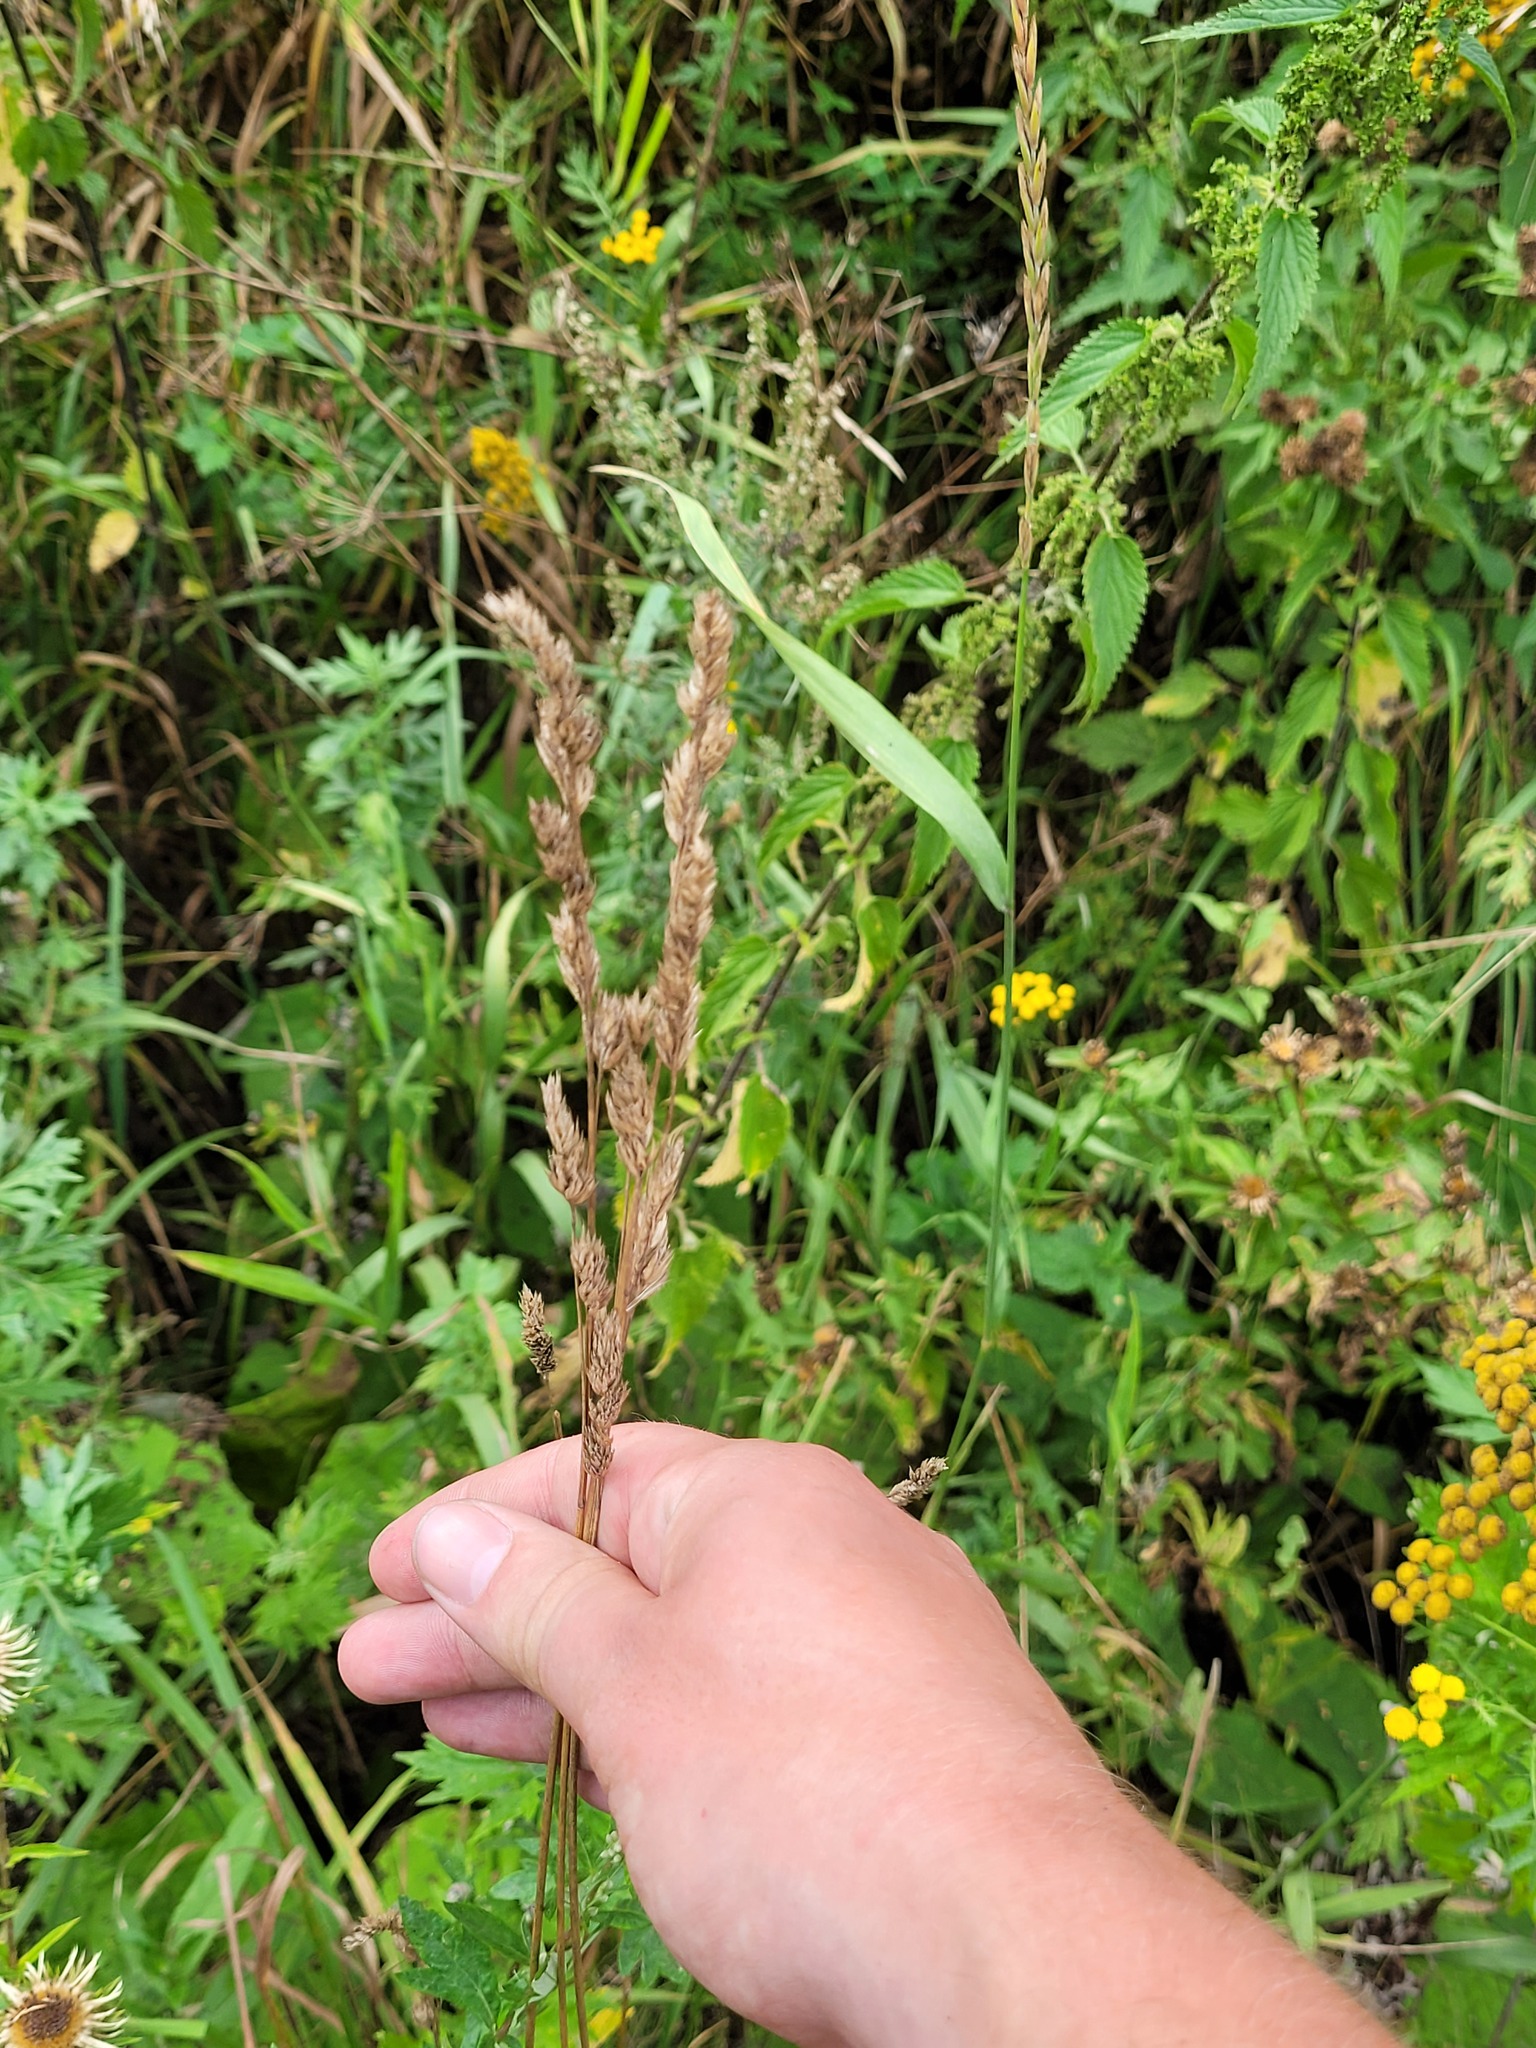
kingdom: Plantae
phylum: Tracheophyta
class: Liliopsida
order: Poales
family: Poaceae
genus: Dactylis
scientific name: Dactylis glomerata
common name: Orchardgrass
